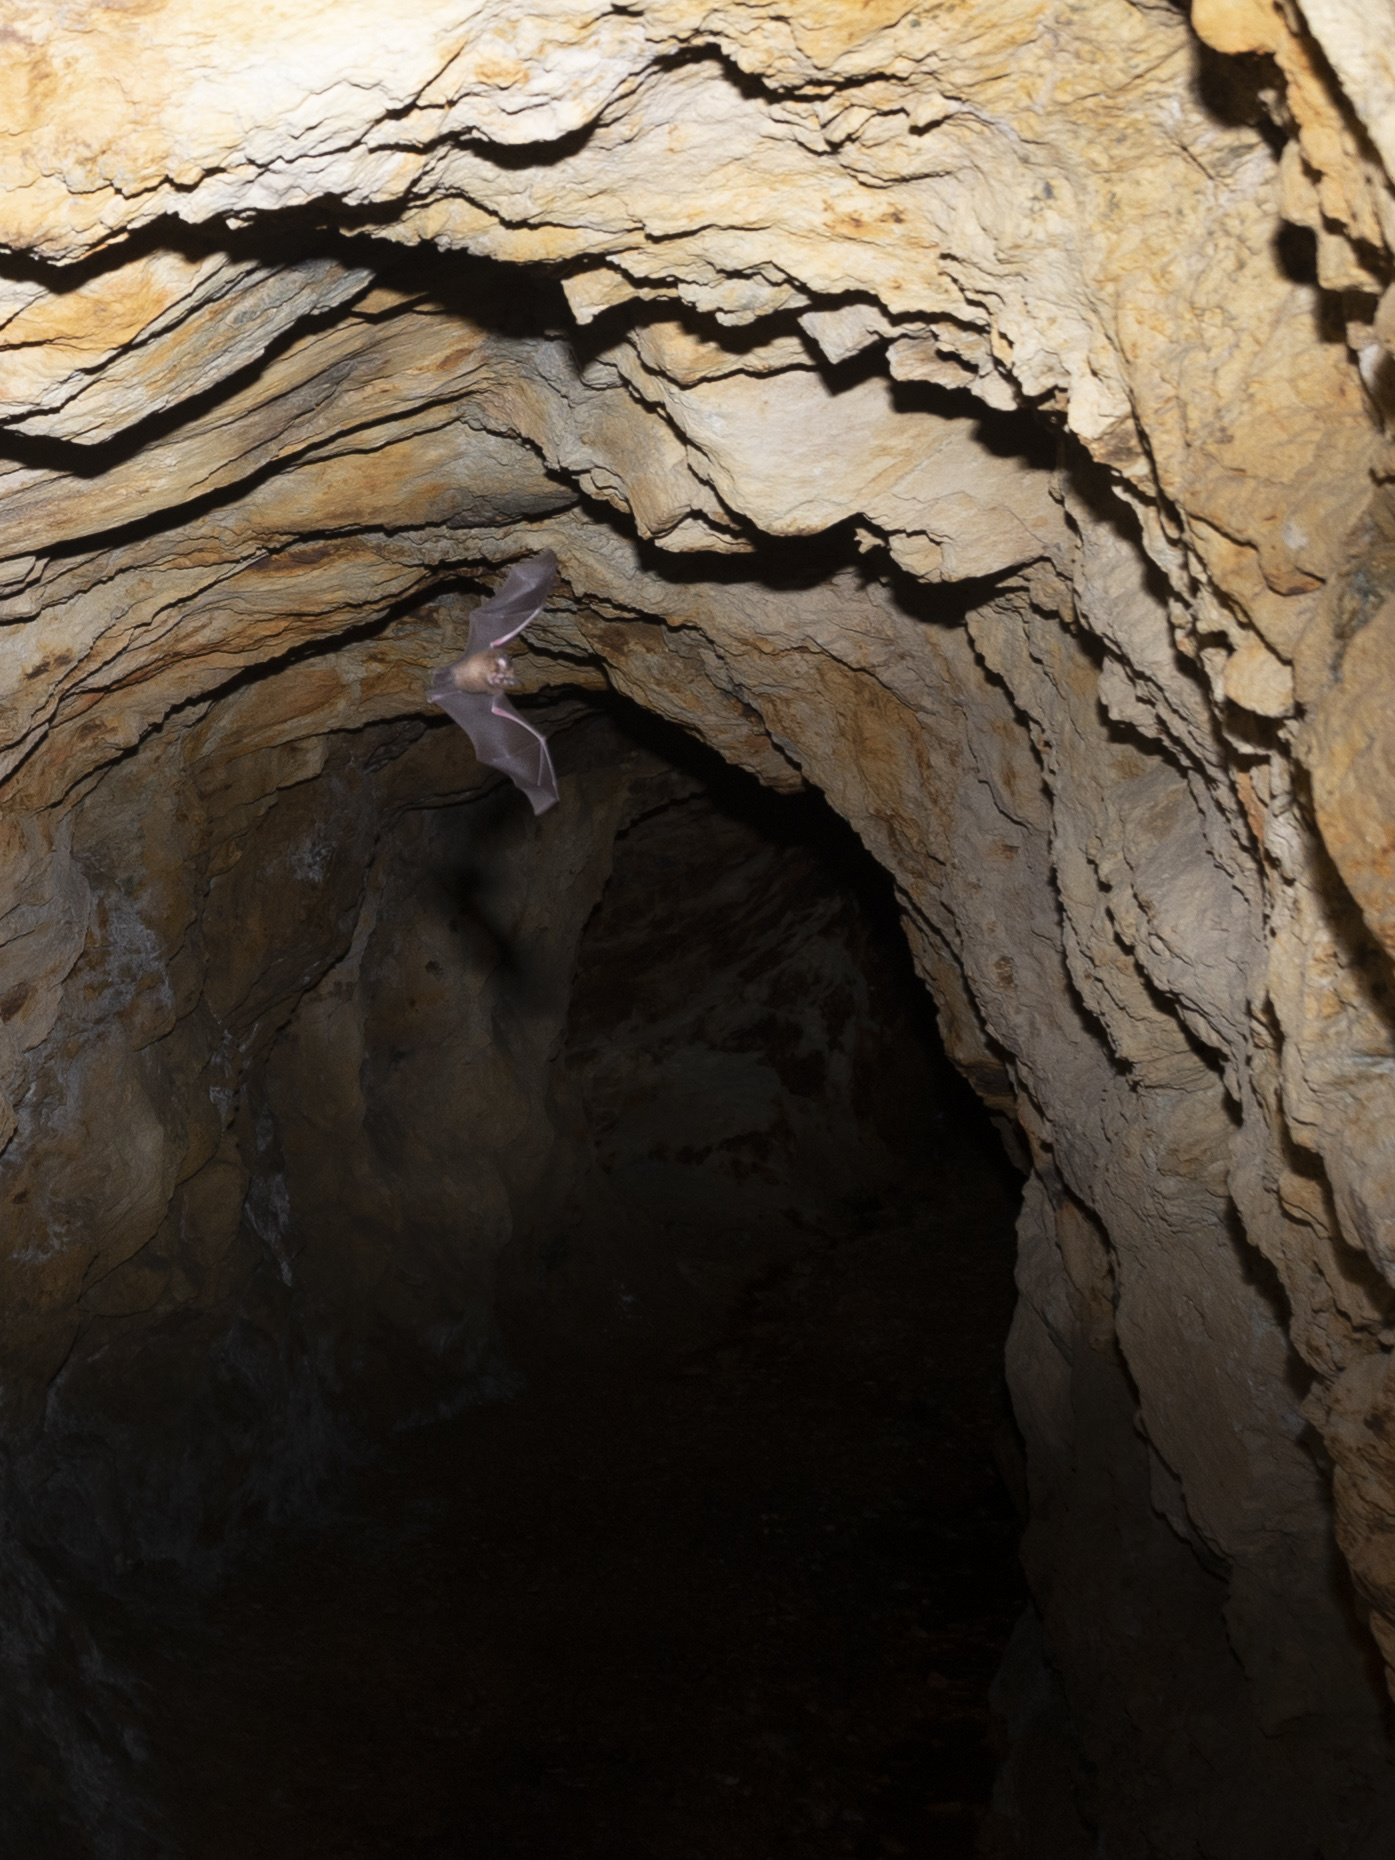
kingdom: Animalia
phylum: Chordata
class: Mammalia
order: Chiroptera
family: Rhinolophidae
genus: Rhinolophus
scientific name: Rhinolophus
